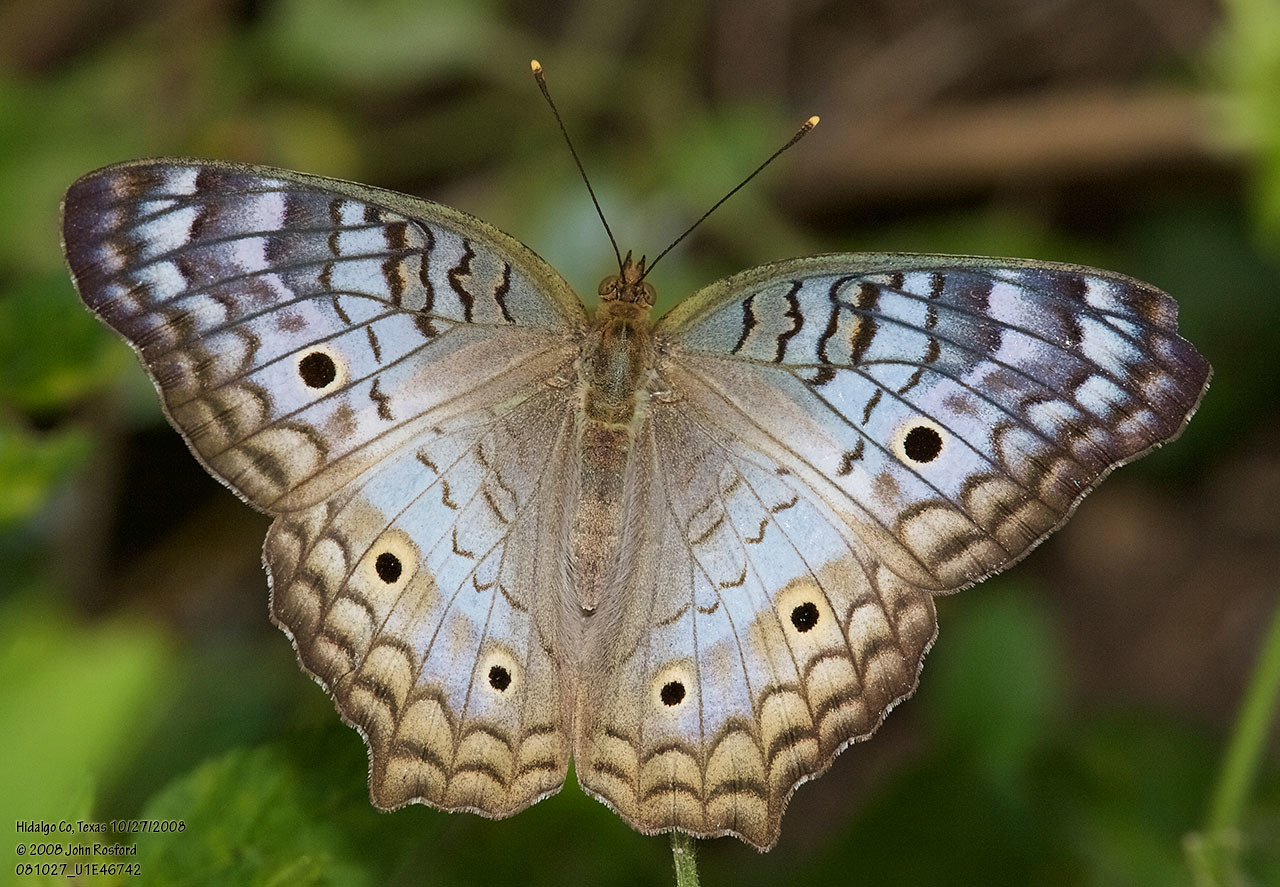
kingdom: Animalia
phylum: Arthropoda
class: Insecta
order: Lepidoptera
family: Nymphalidae
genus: Anartia
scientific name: Anartia jatrophae
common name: White peacock
